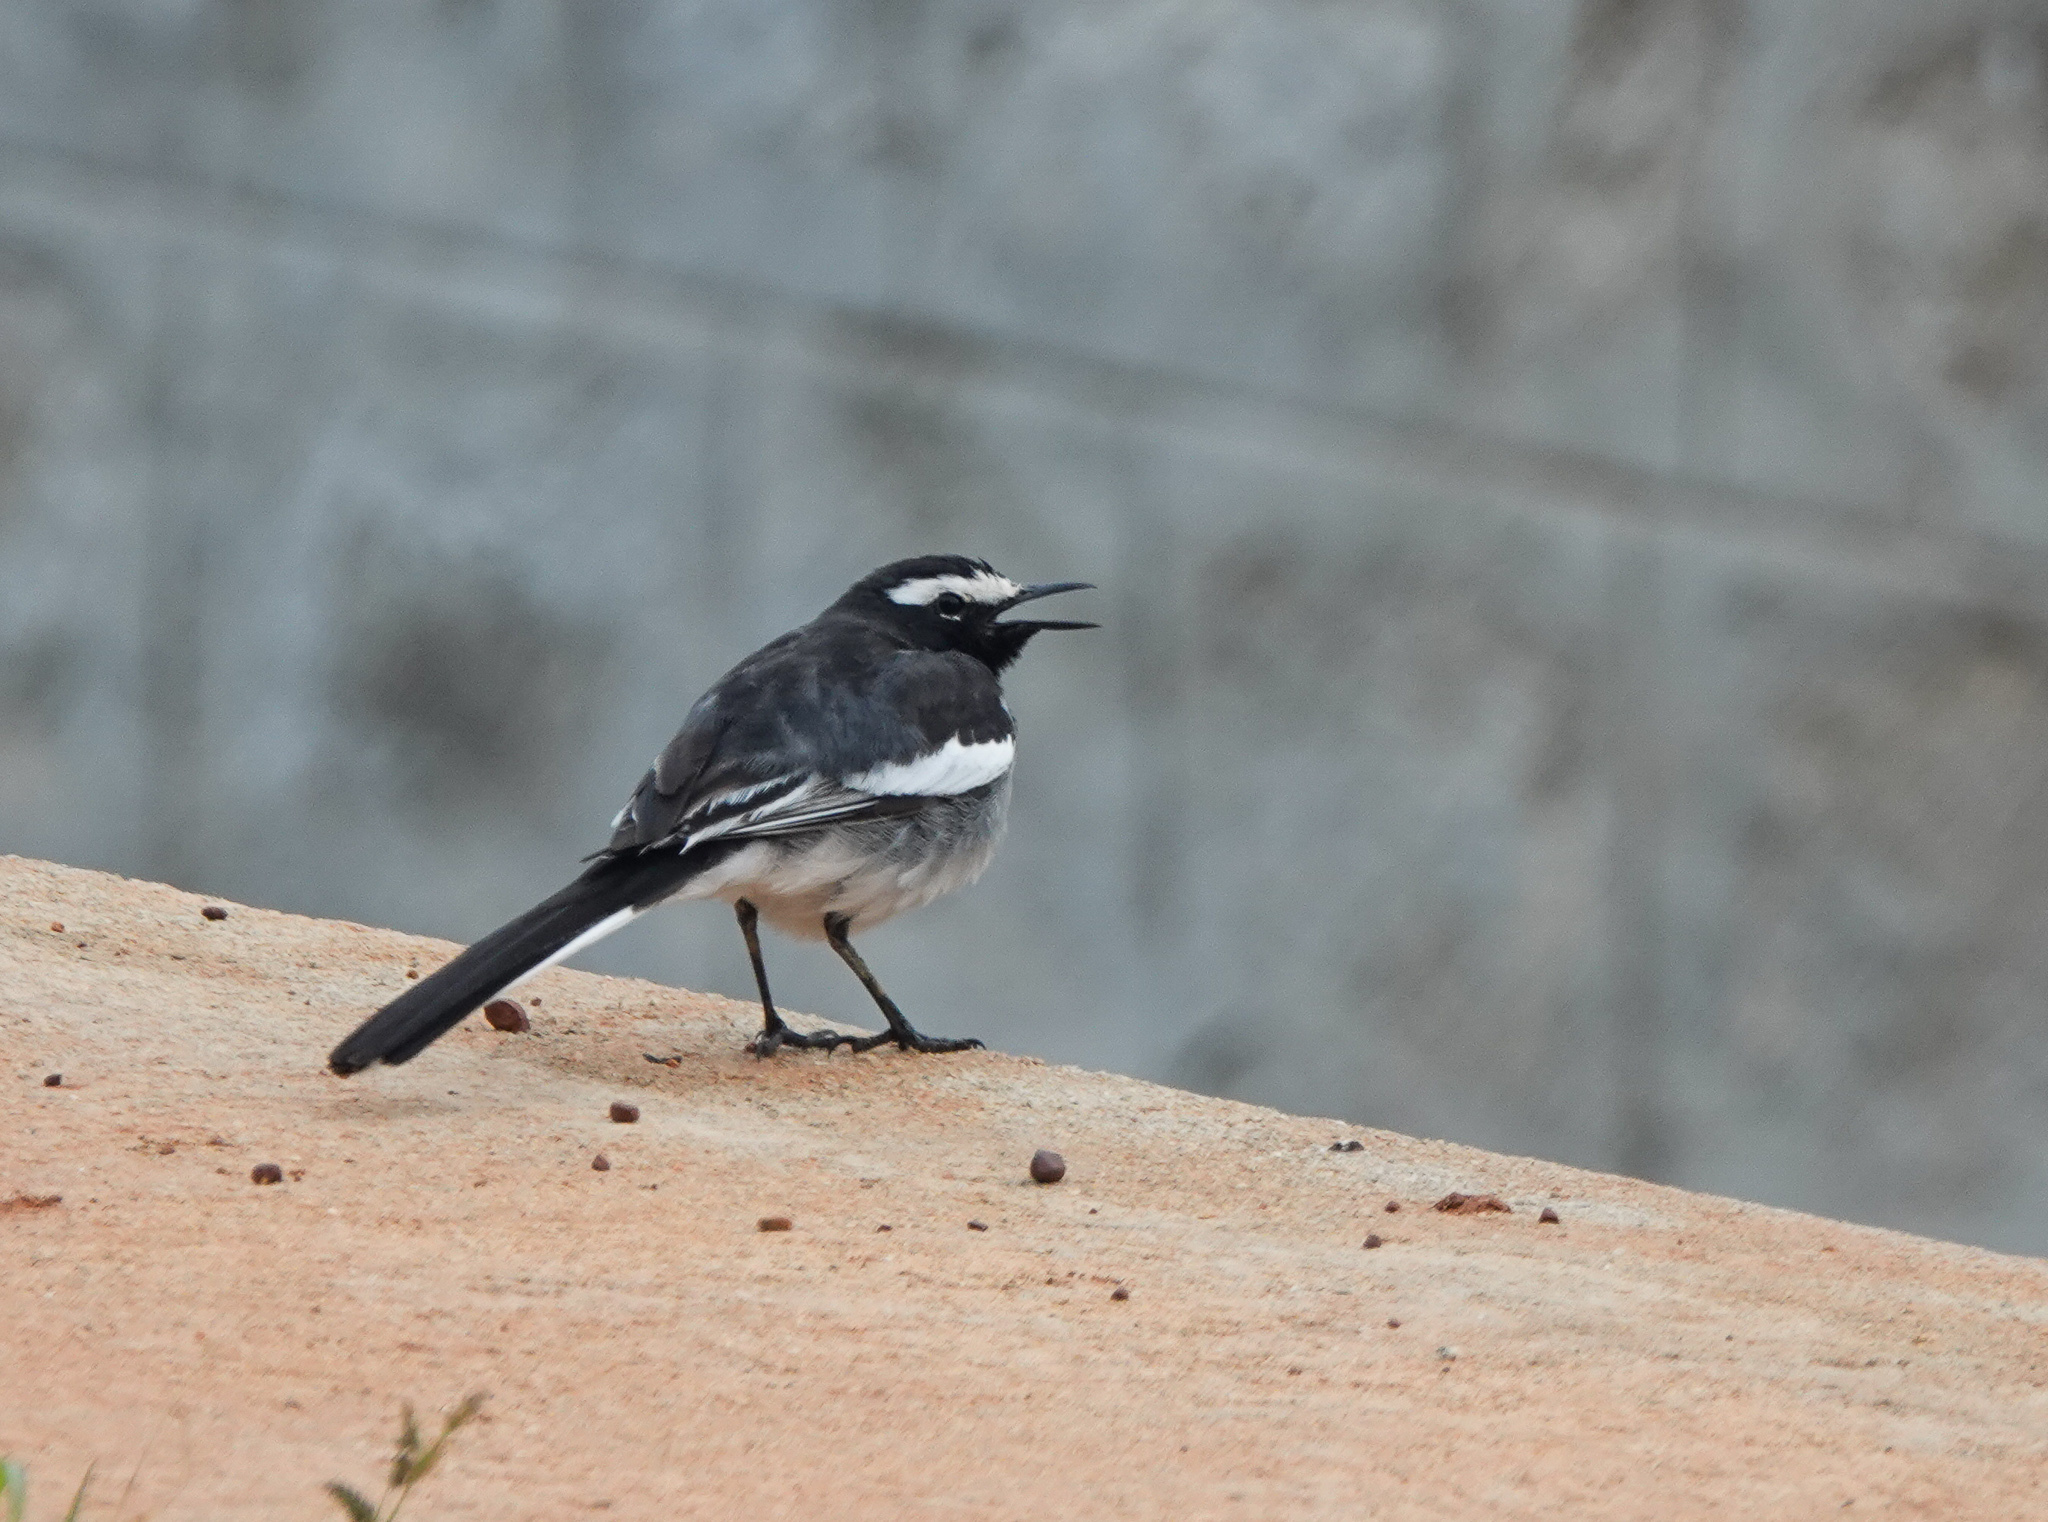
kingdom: Animalia
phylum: Chordata
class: Aves
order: Passeriformes
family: Motacillidae
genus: Motacilla
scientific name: Motacilla maderaspatensis
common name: White-browed wagtail
